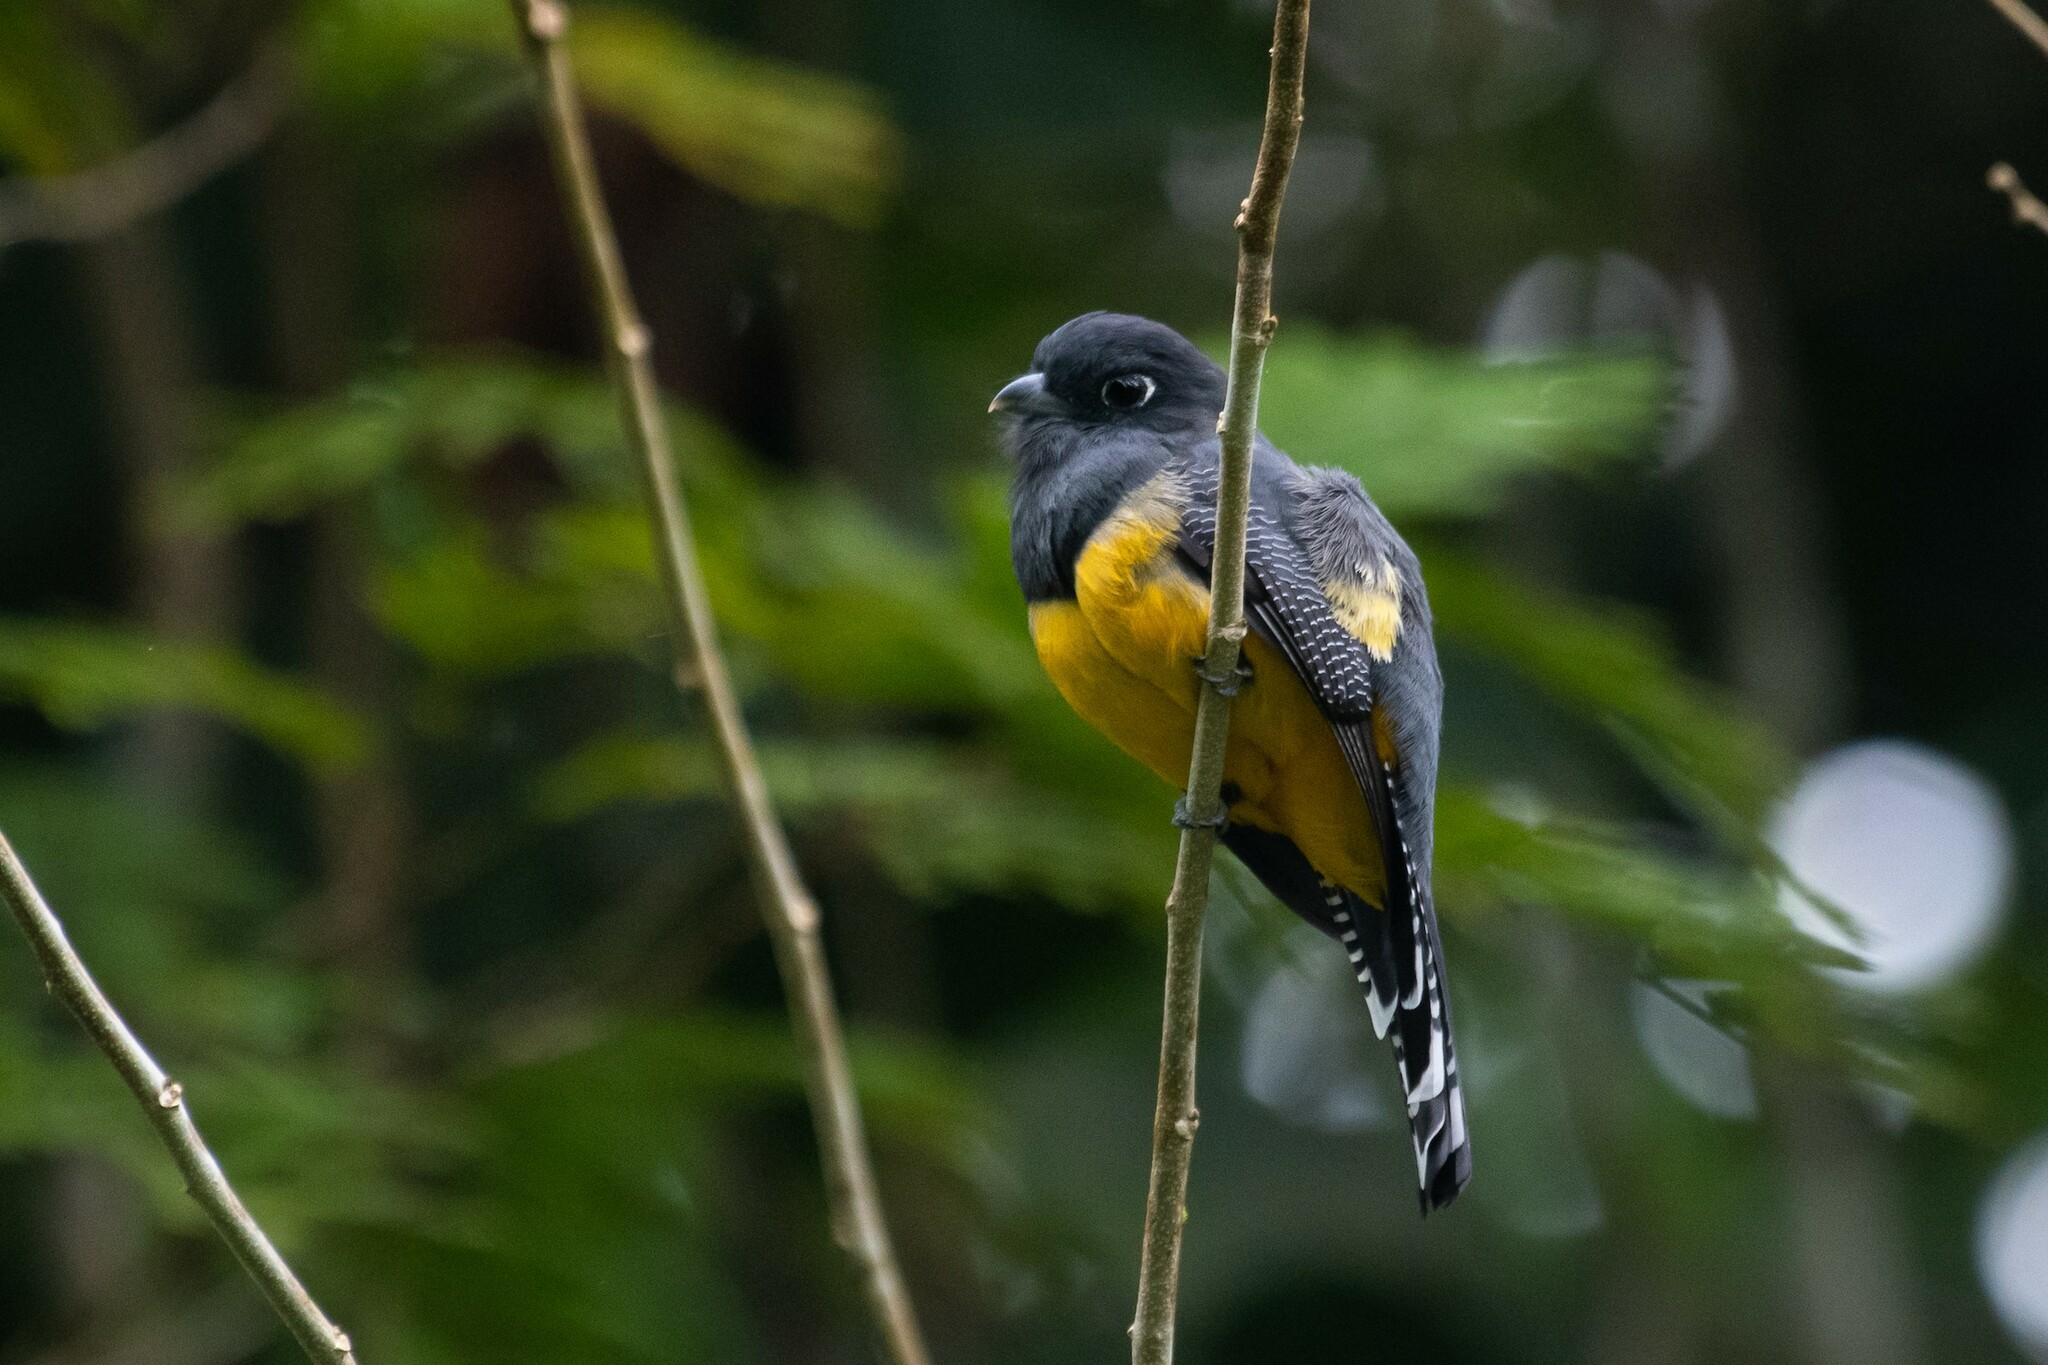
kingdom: Animalia
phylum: Chordata
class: Aves
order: Trogoniformes
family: Trogonidae
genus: Trogon
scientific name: Trogon caligatus
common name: Gartered trogon
